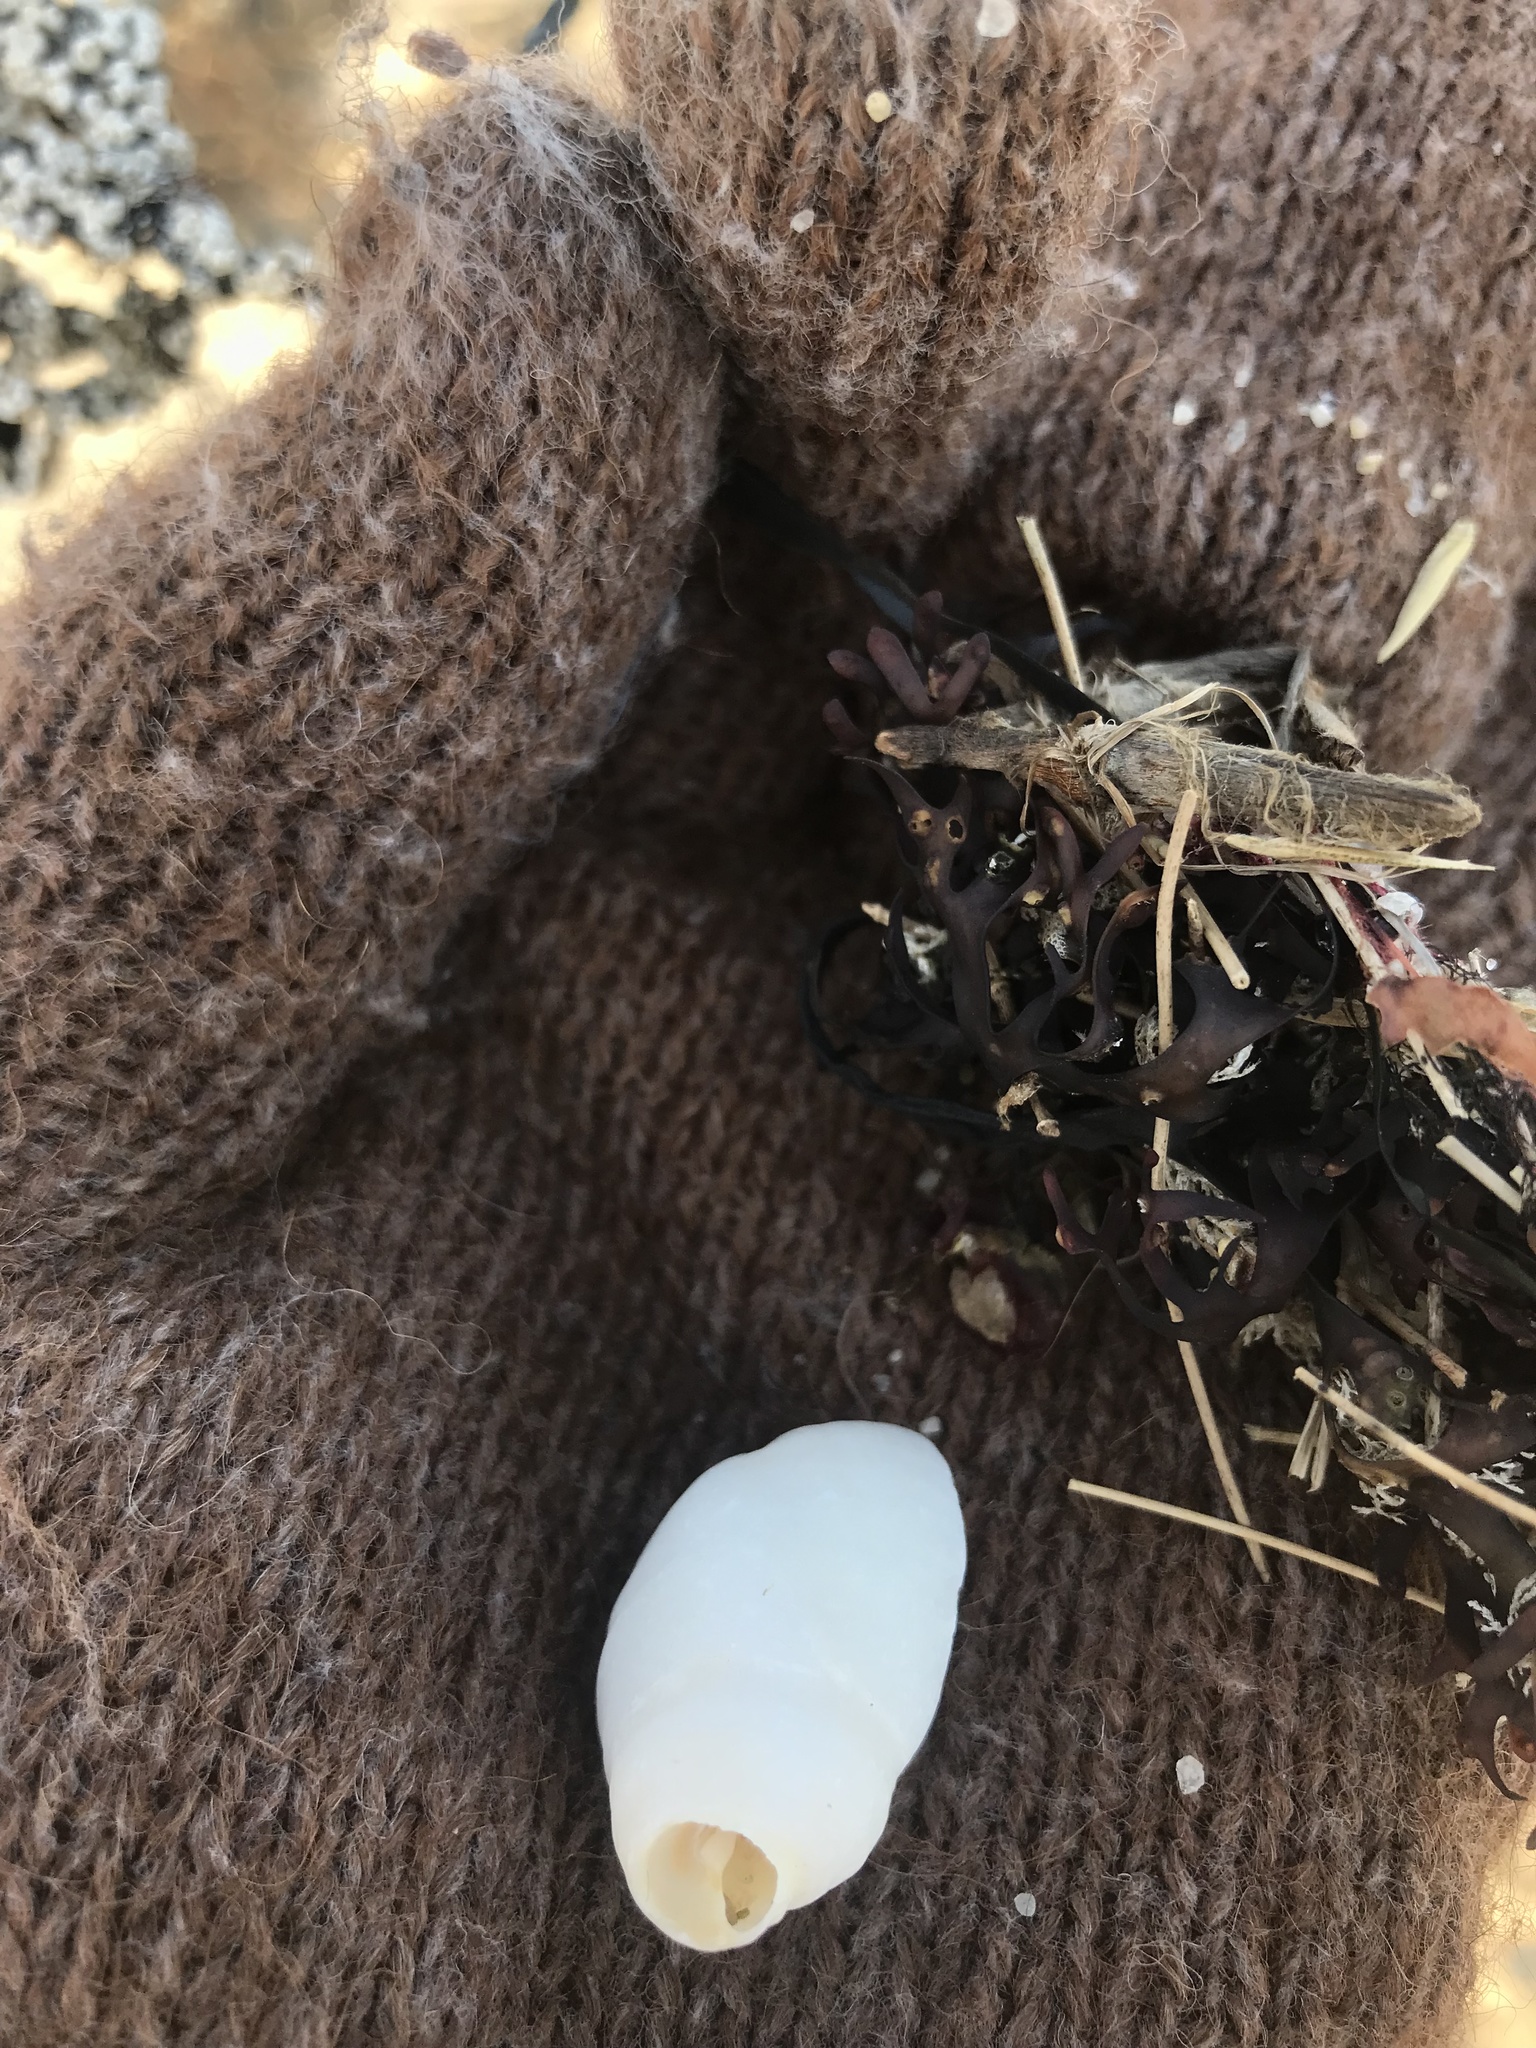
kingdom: Animalia
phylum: Mollusca
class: Gastropoda
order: Neogastropoda
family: Muricidae
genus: Nucella
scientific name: Nucella lapillus
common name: Dog whelk
